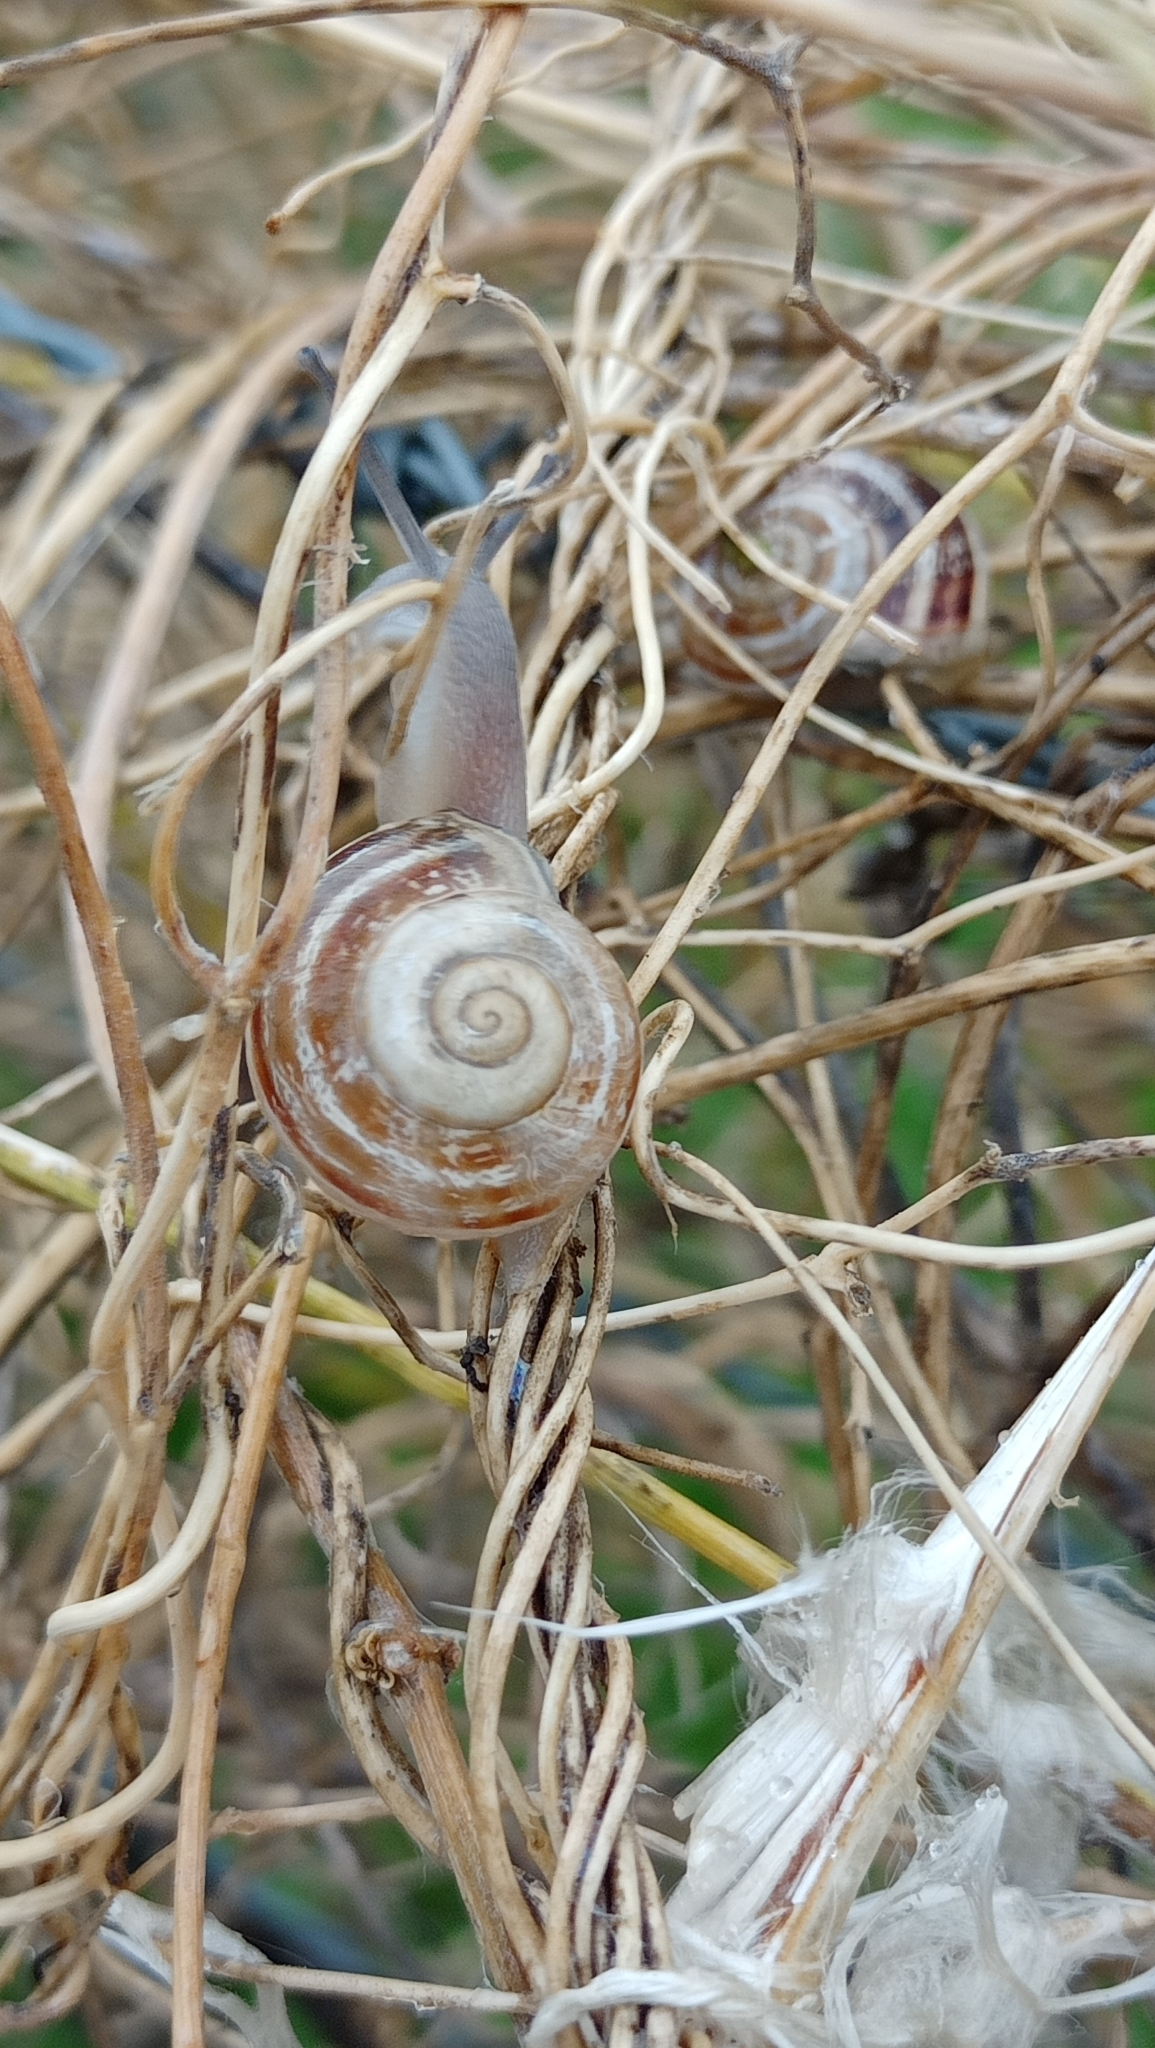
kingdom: Animalia
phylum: Mollusca
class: Gastropoda
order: Stylommatophora
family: Helicidae
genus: Eobania
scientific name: Eobania vermiculata
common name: Chocolateband snail
